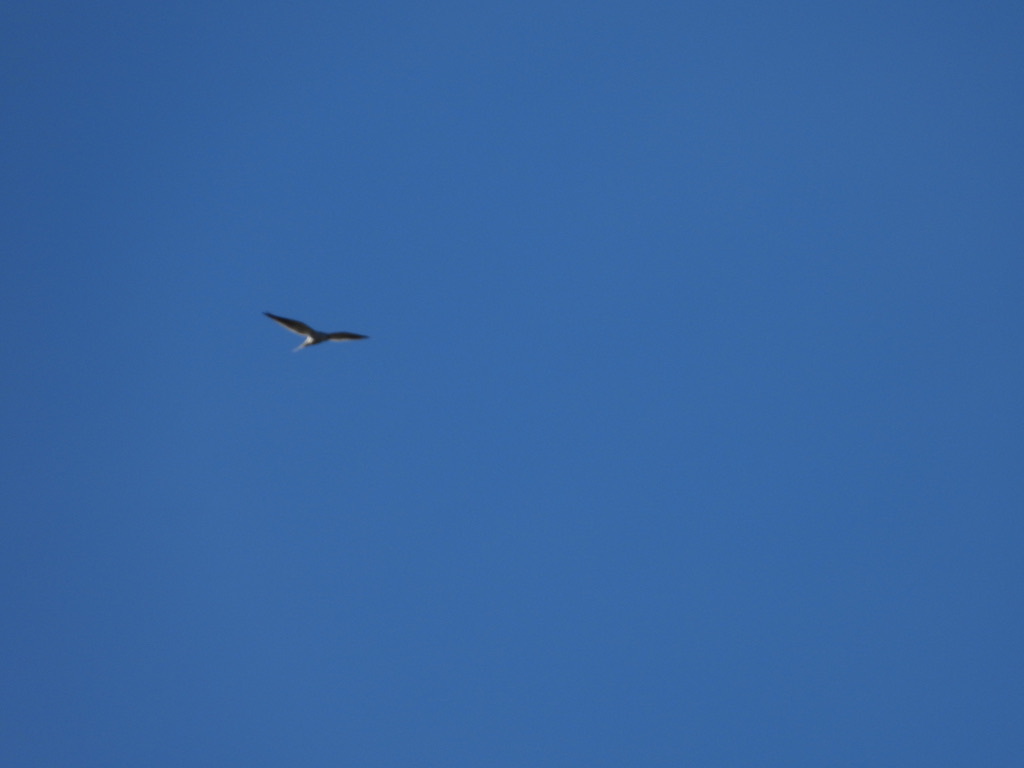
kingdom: Animalia
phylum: Chordata
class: Aves
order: Accipitriformes
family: Accipitridae
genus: Elanus
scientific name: Elanus leucurus
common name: White-tailed kite
